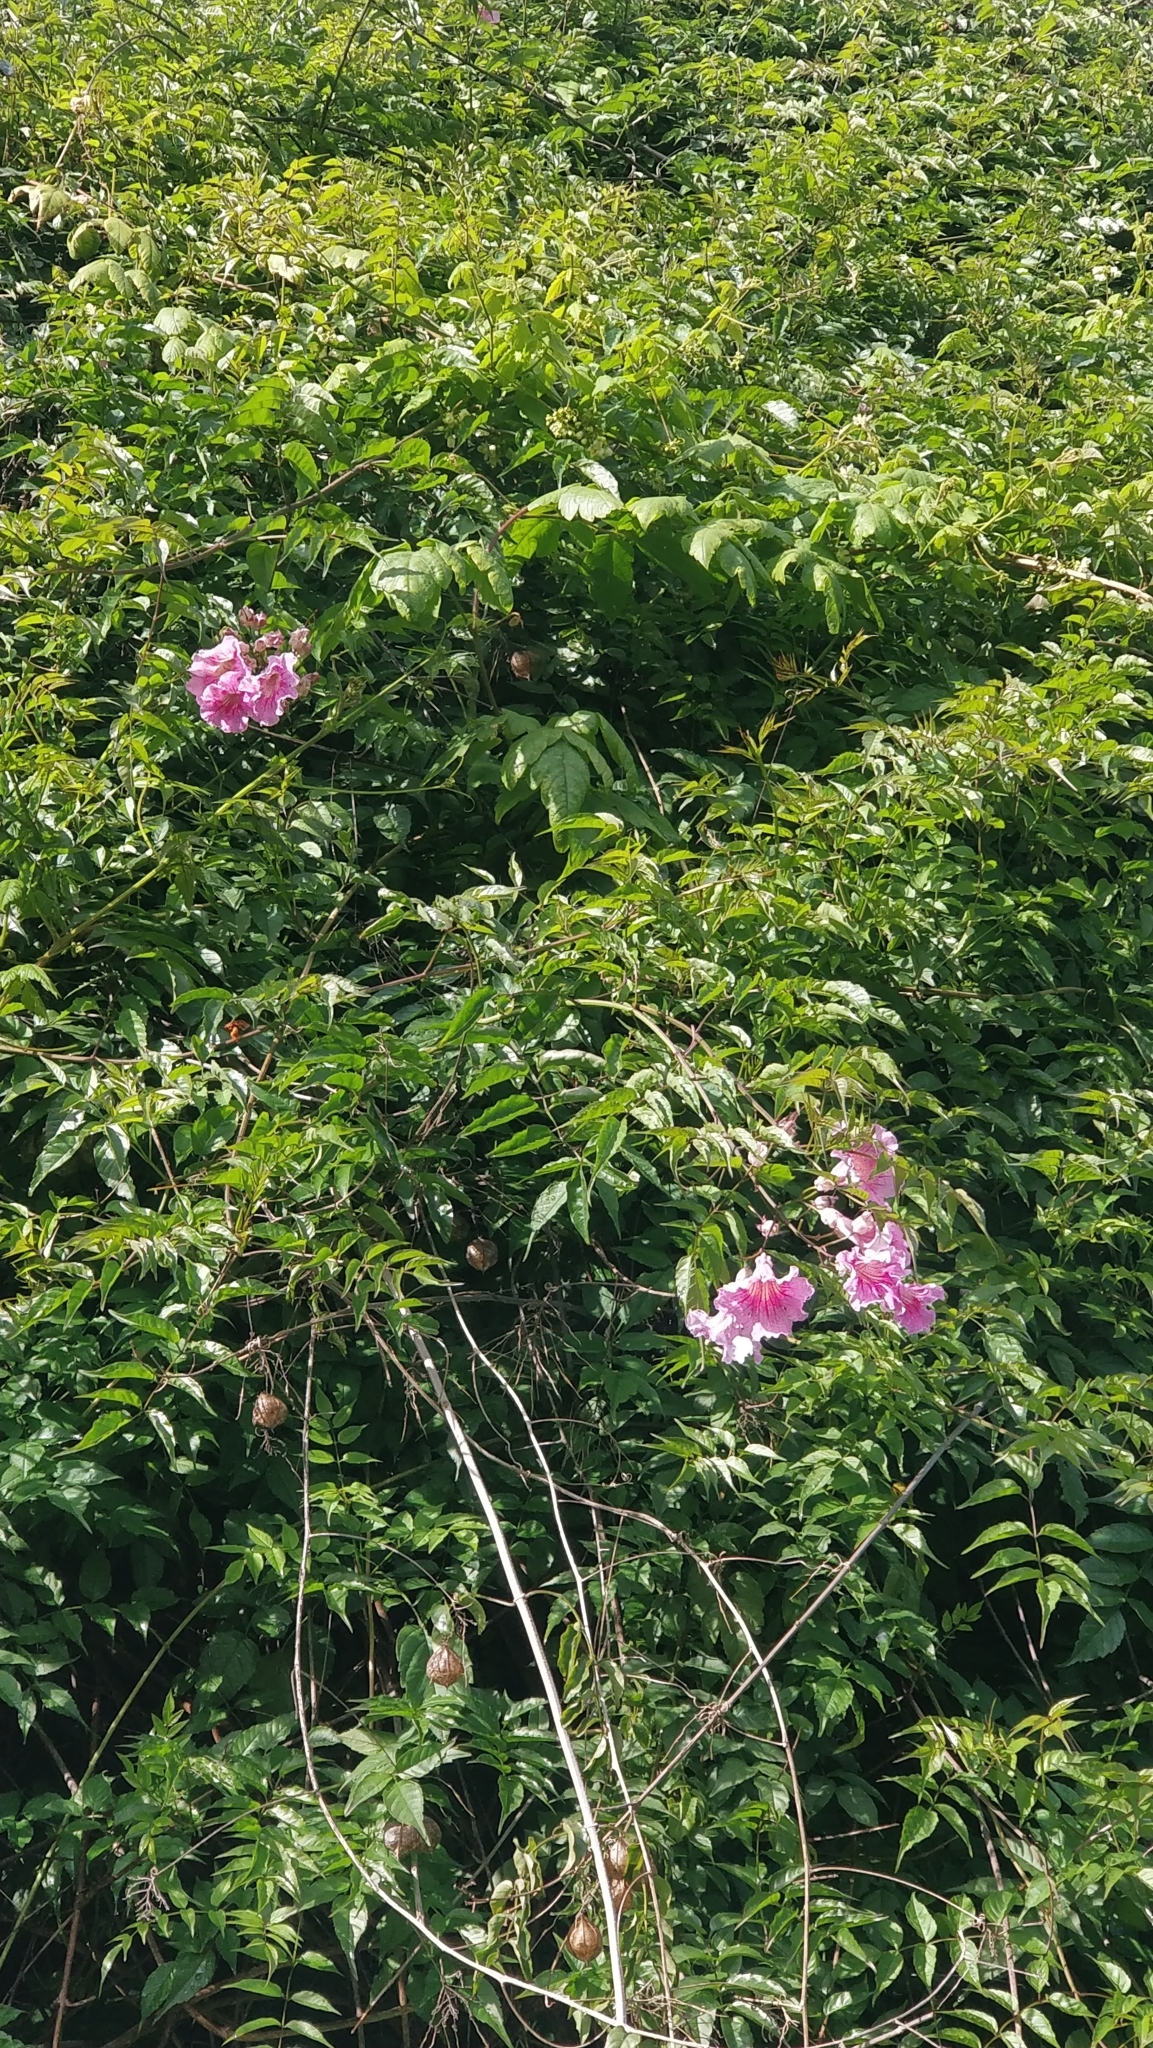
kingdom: Plantae
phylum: Tracheophyta
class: Magnoliopsida
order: Lamiales
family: Bignoniaceae
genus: Podranea
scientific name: Podranea ricasoliana
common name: Zimbabwe creeper
